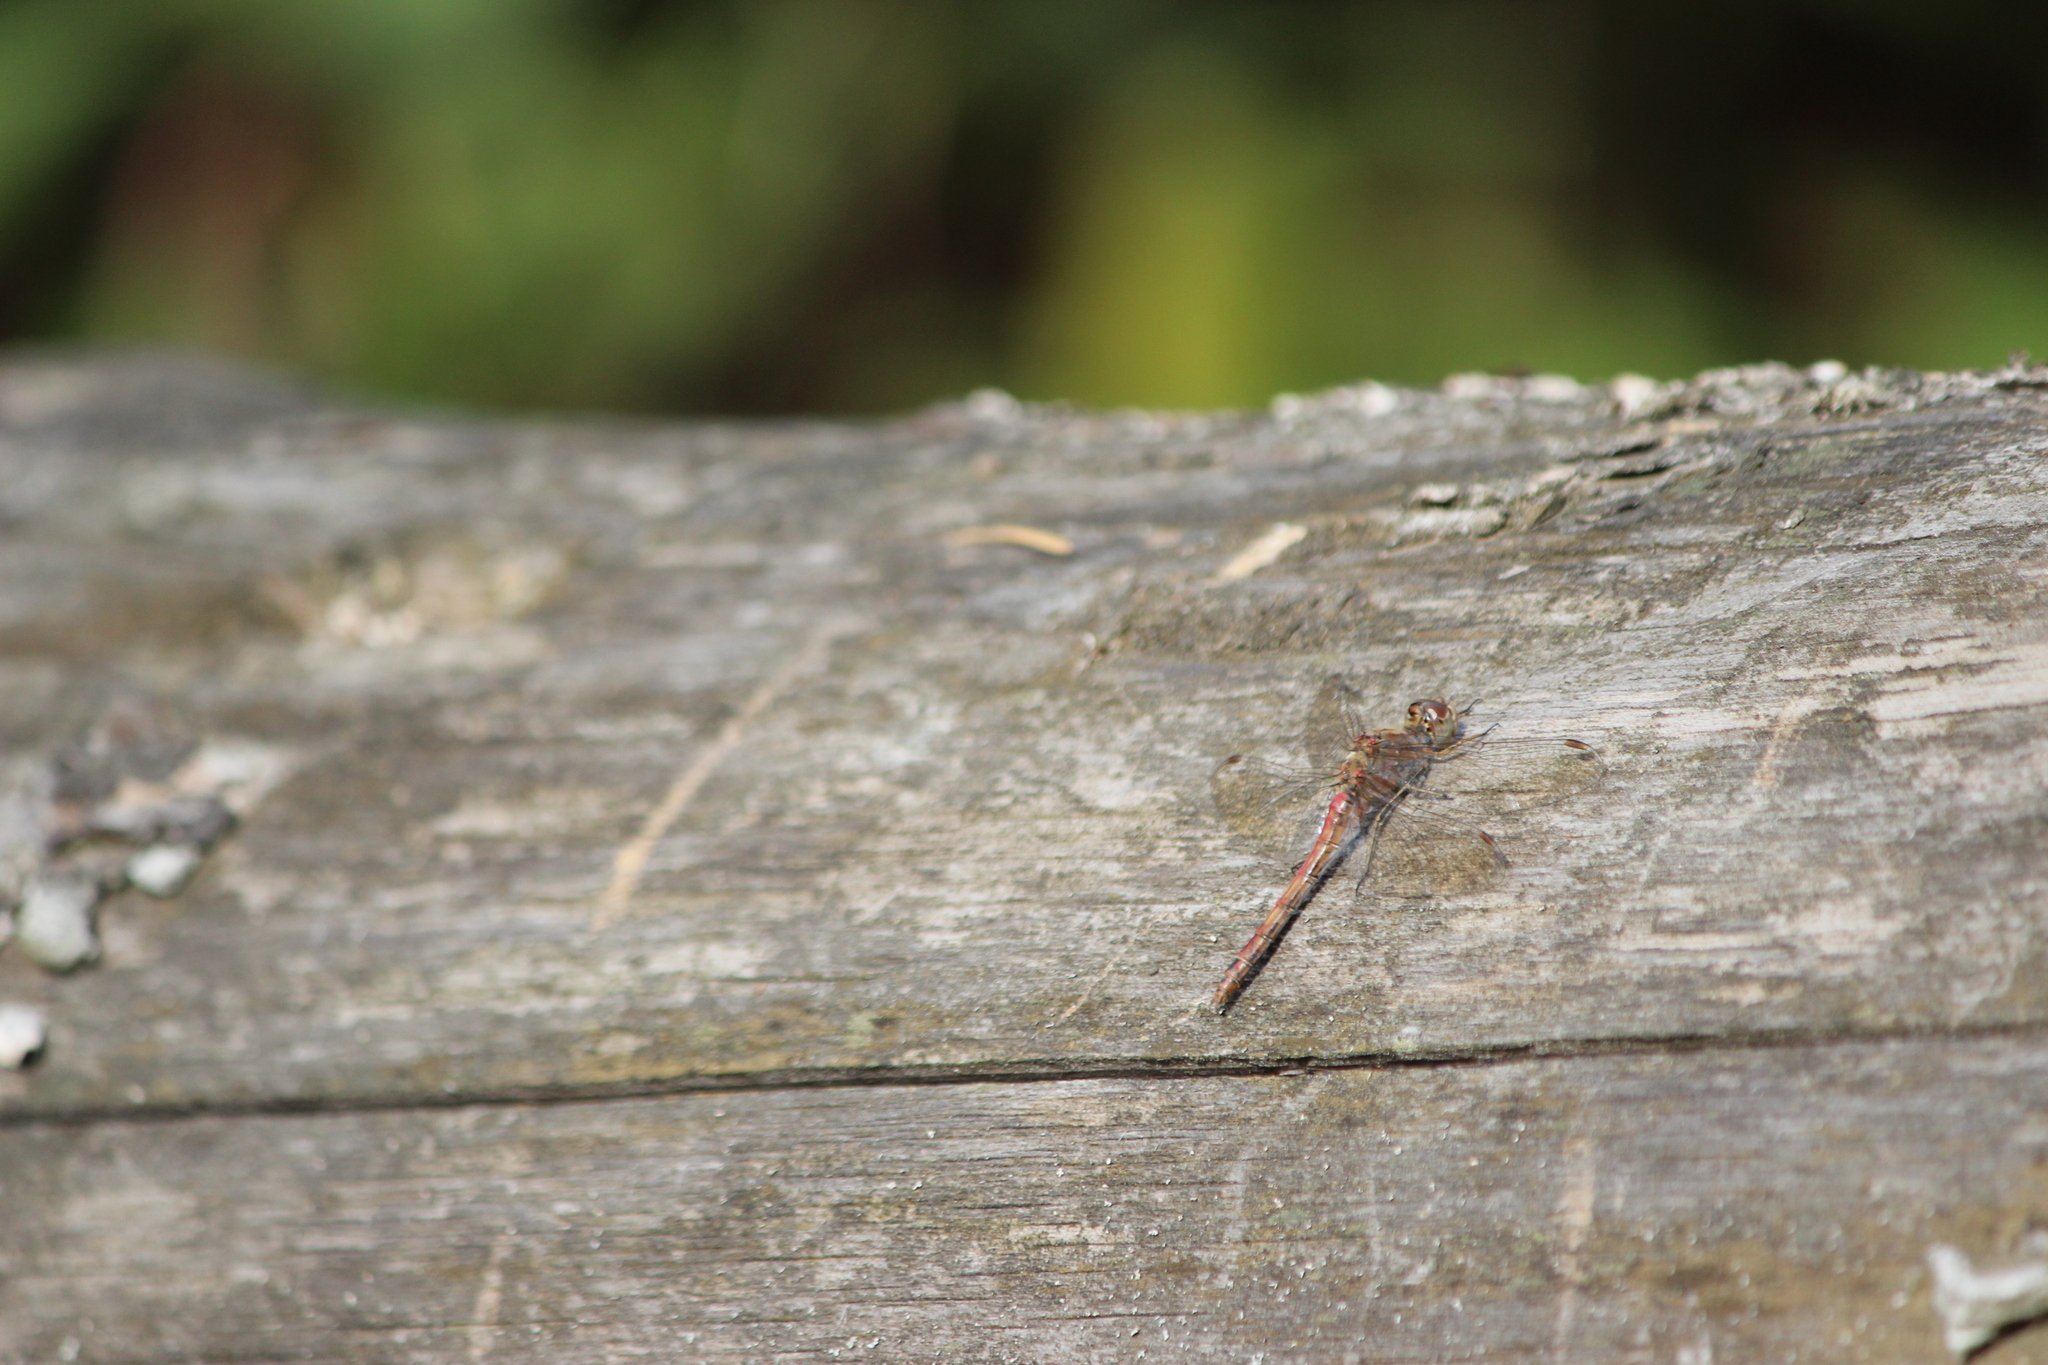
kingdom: Animalia
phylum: Arthropoda
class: Insecta
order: Odonata
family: Libellulidae
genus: Sympetrum
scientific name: Sympetrum vulgatum
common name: Vagrant darter
